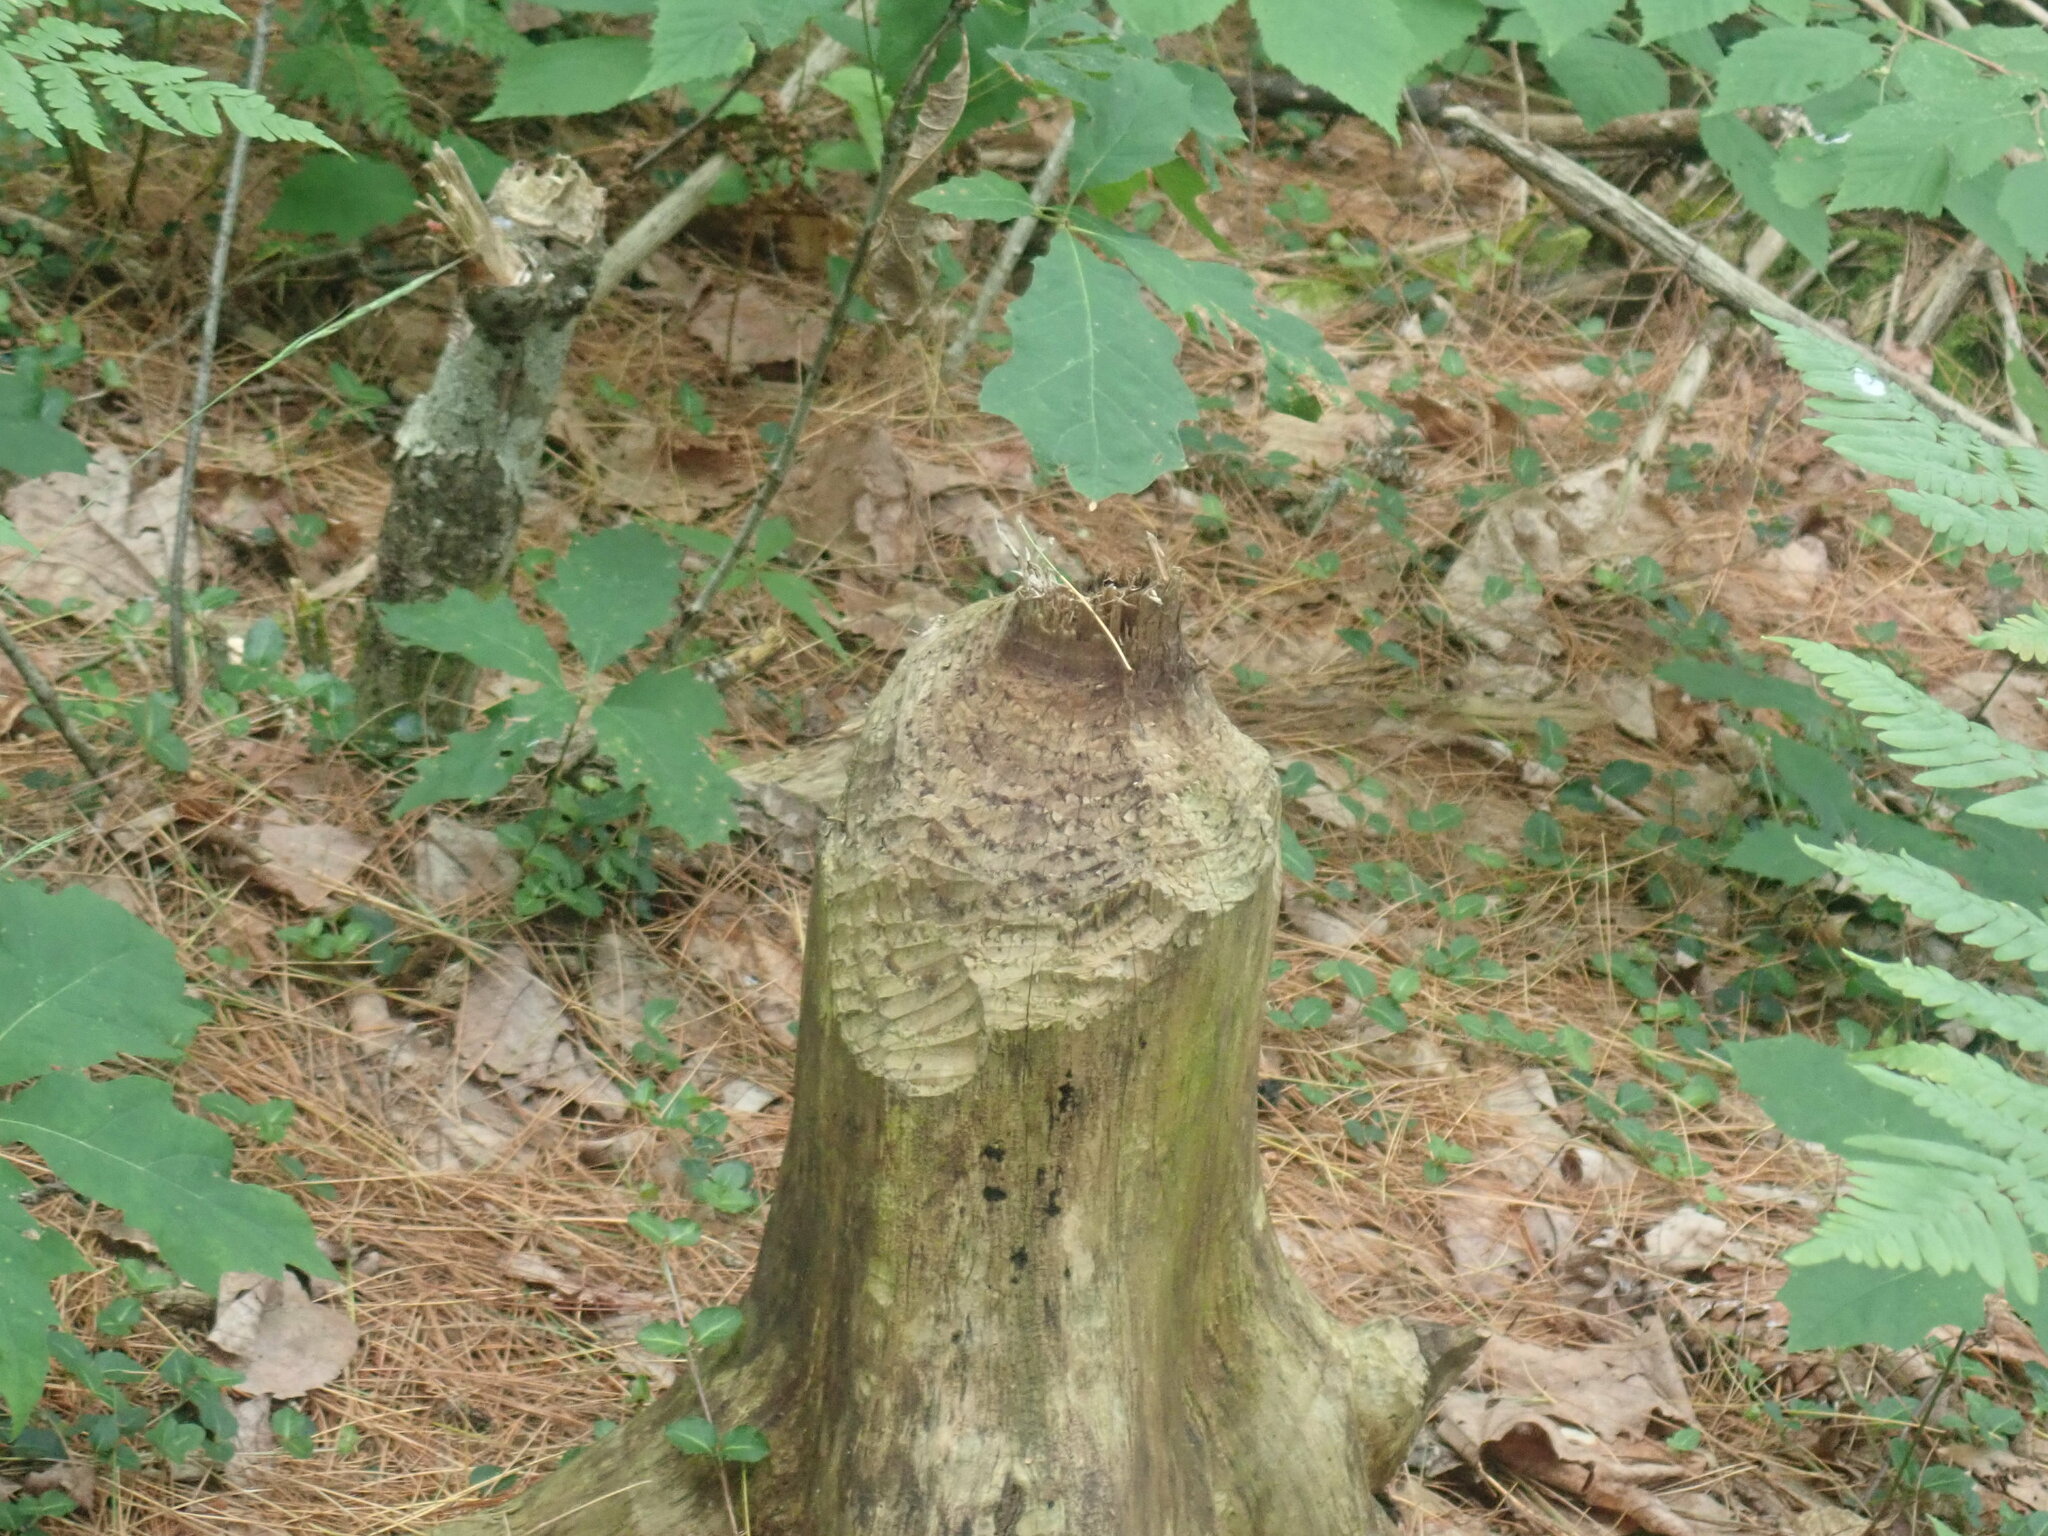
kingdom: Animalia
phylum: Chordata
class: Mammalia
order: Rodentia
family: Castoridae
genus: Castor
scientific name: Castor canadensis
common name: American beaver
